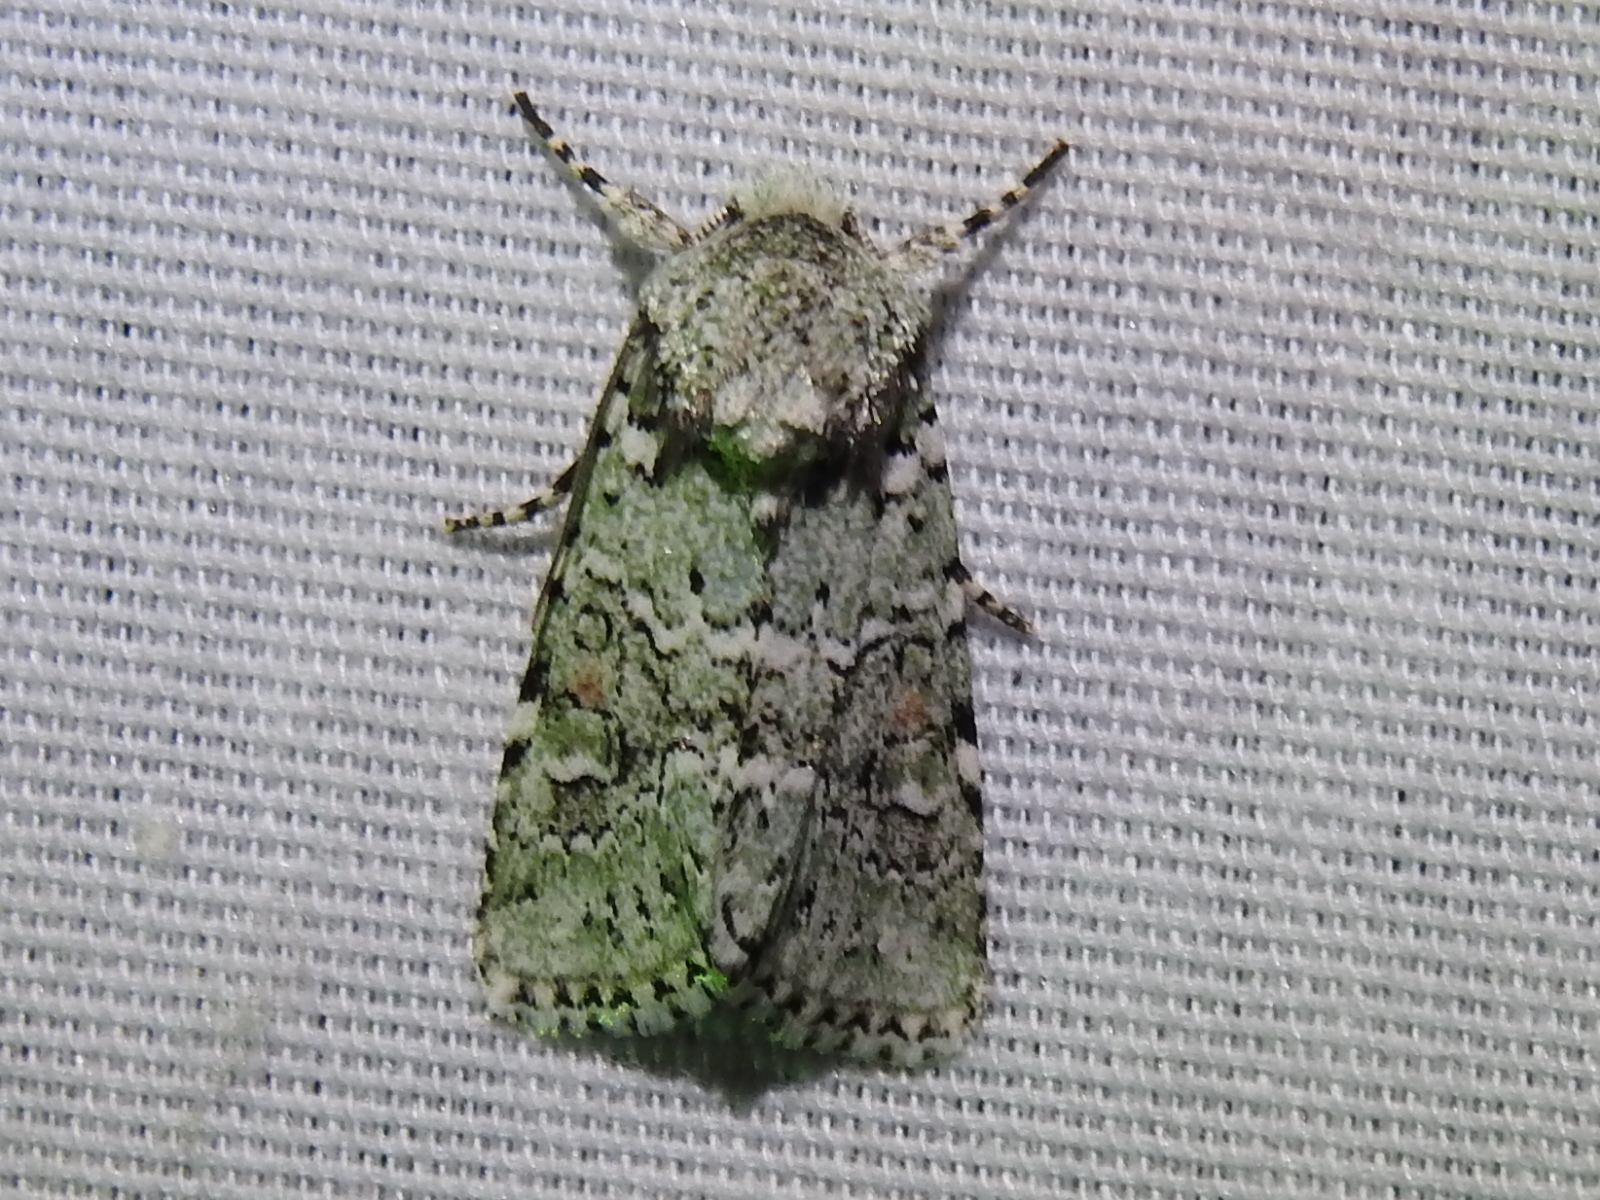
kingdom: Animalia
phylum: Arthropoda
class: Insecta
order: Lepidoptera
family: Noctuidae
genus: Lacinipolia
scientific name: Lacinipolia laudabilis
